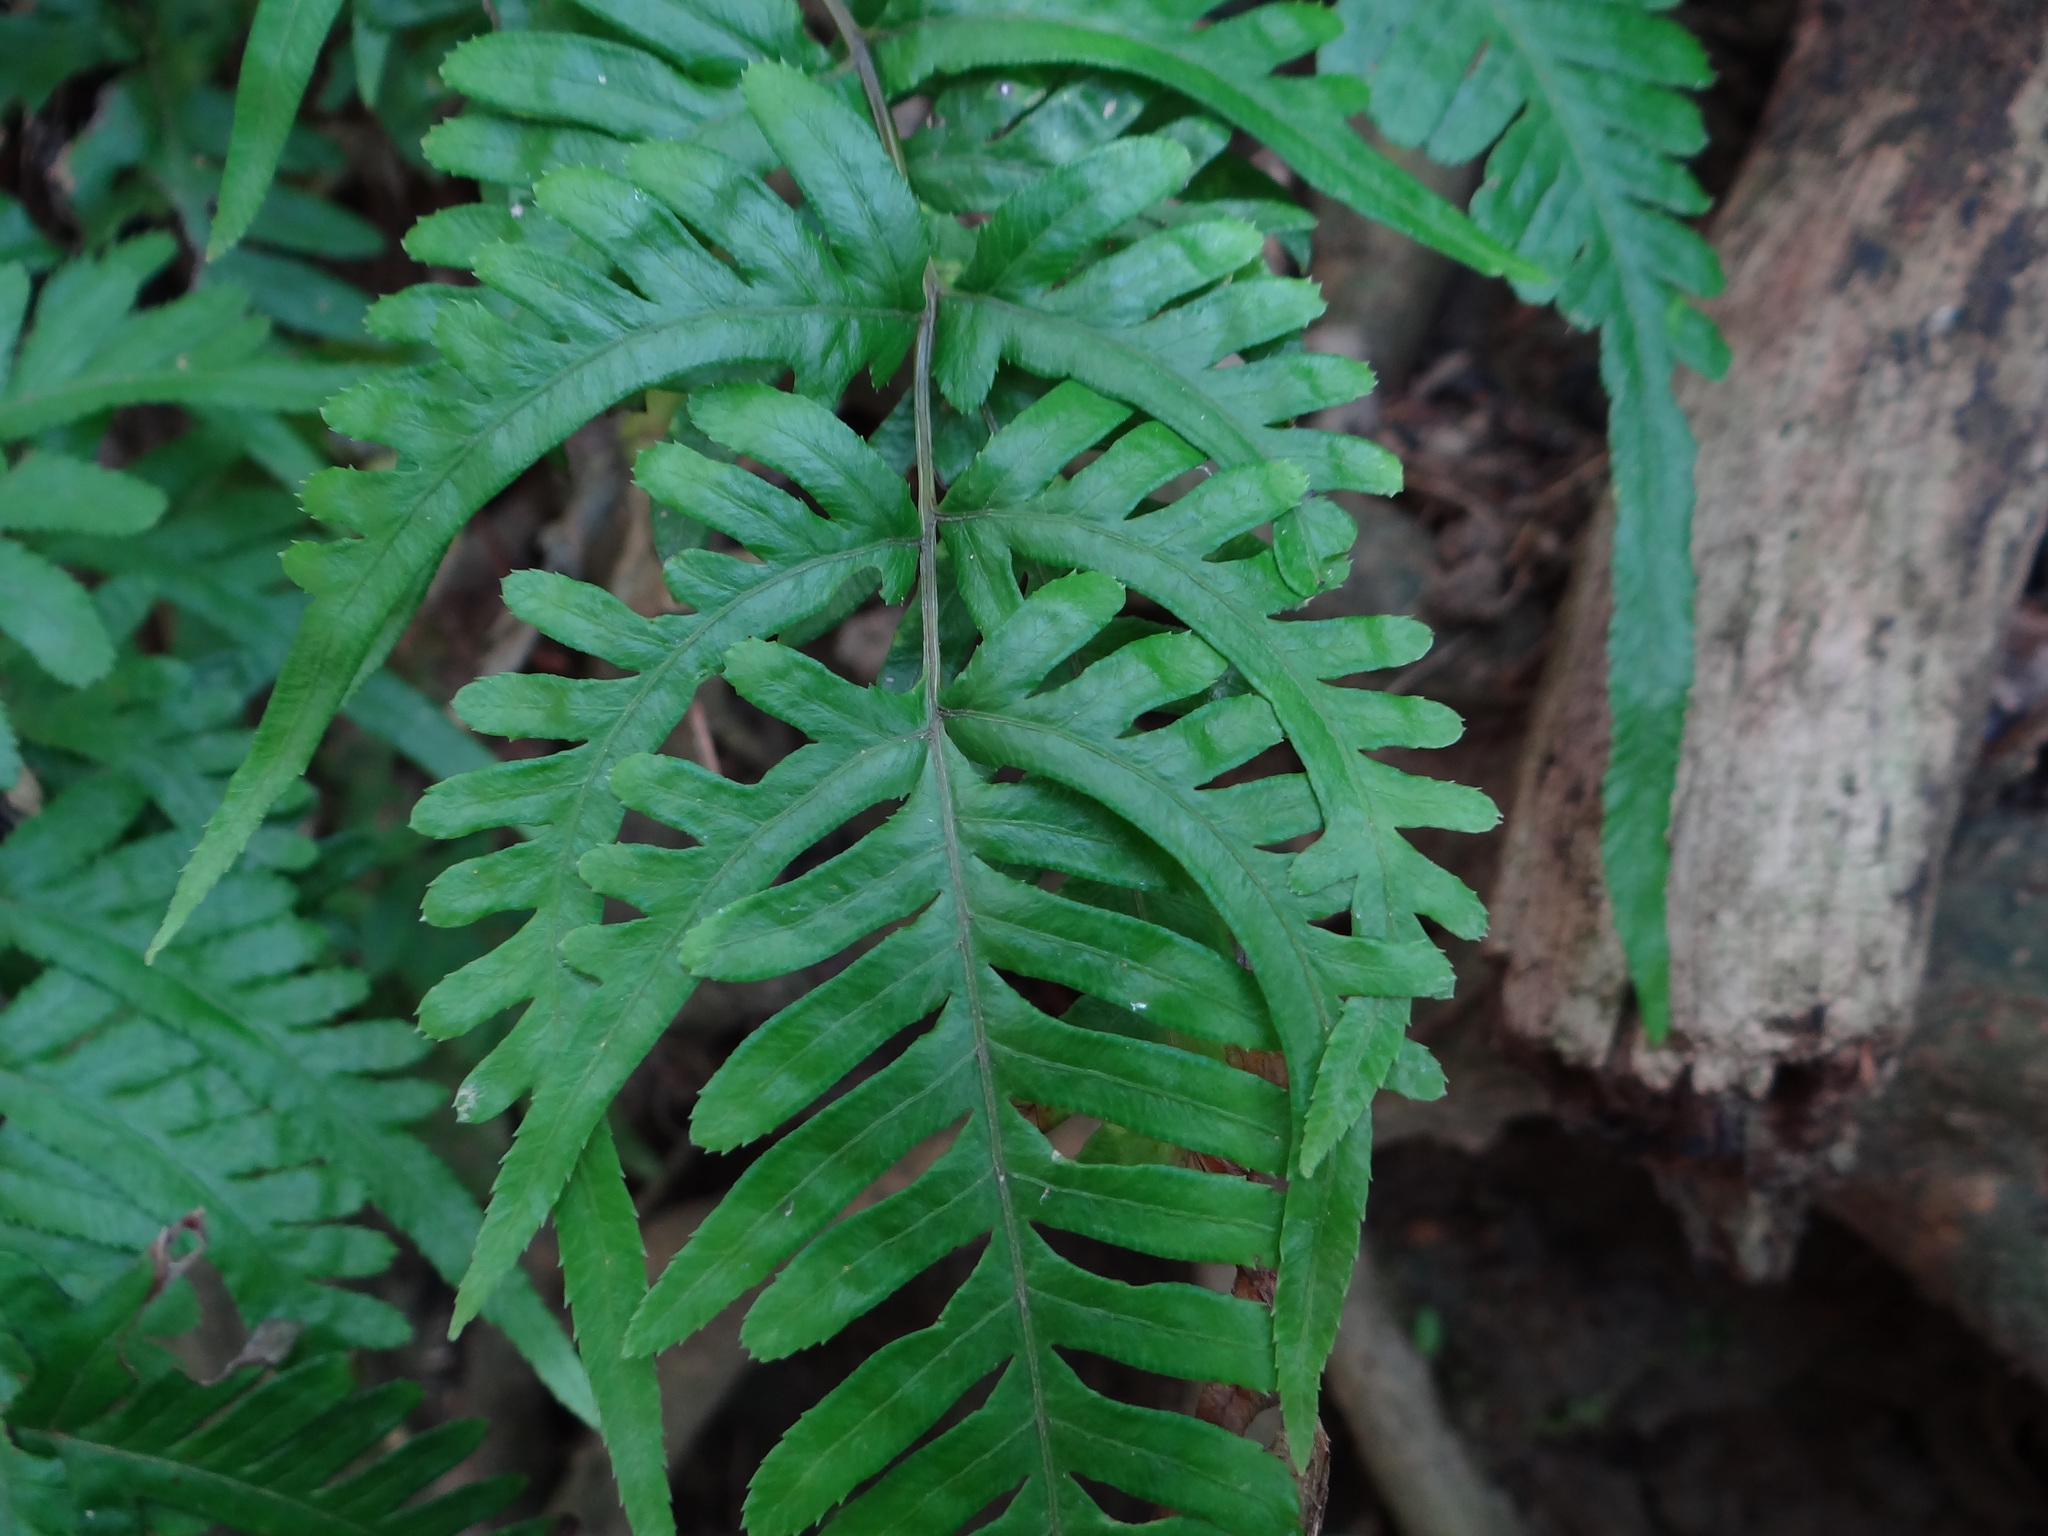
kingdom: Plantae
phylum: Tracheophyta
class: Polypodiopsida
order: Polypodiales
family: Pteridaceae
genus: Pteris
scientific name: Pteris dispar
